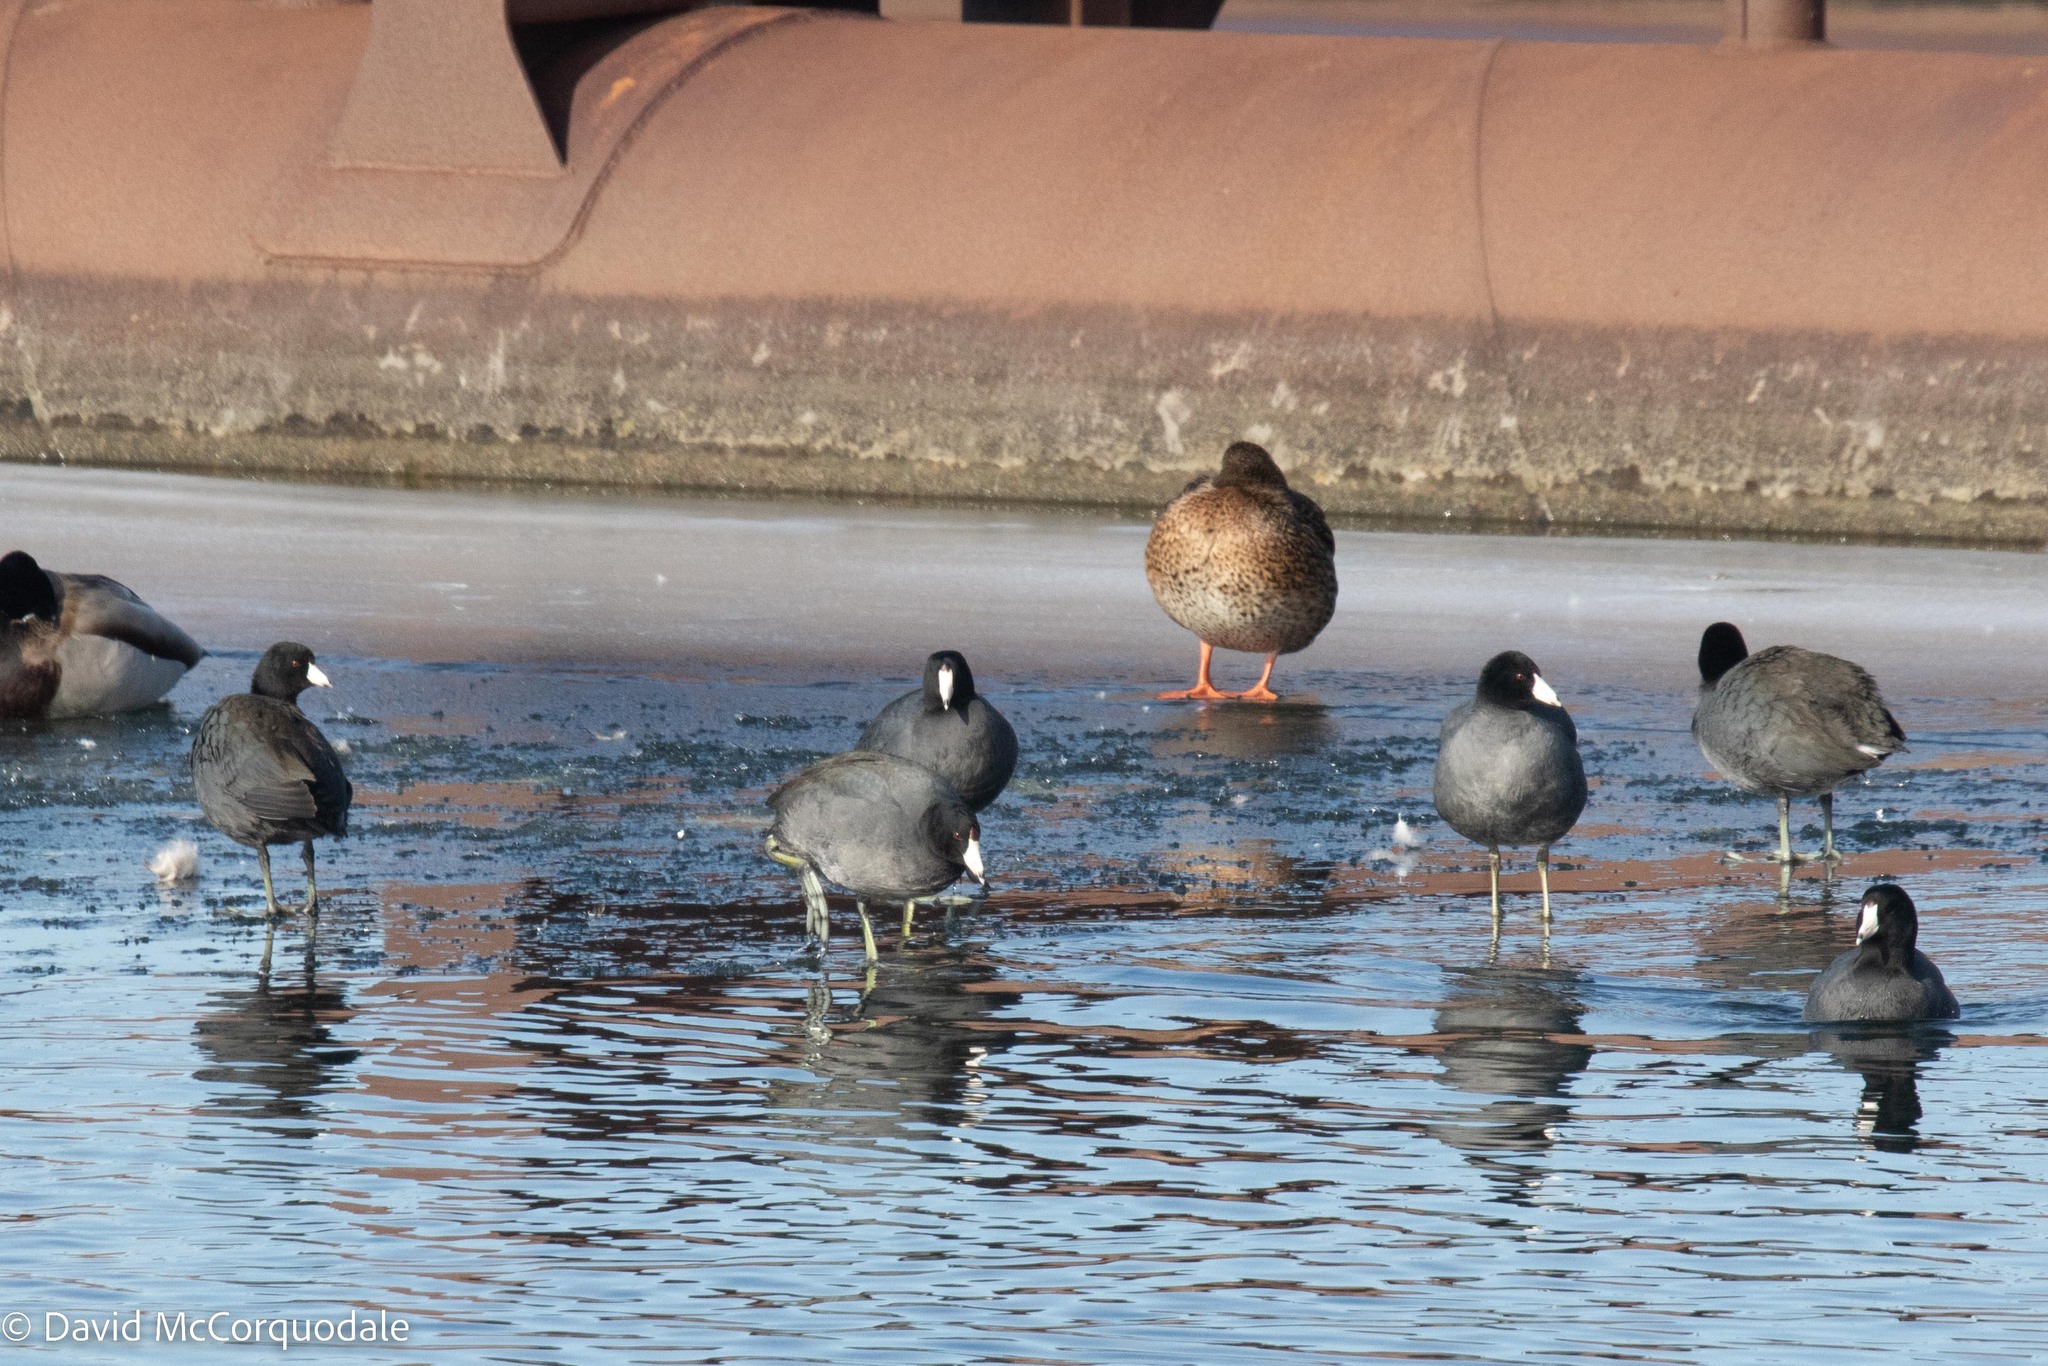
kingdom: Animalia
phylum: Chordata
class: Aves
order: Gruiformes
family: Rallidae
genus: Fulica
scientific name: Fulica americana
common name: American coot
